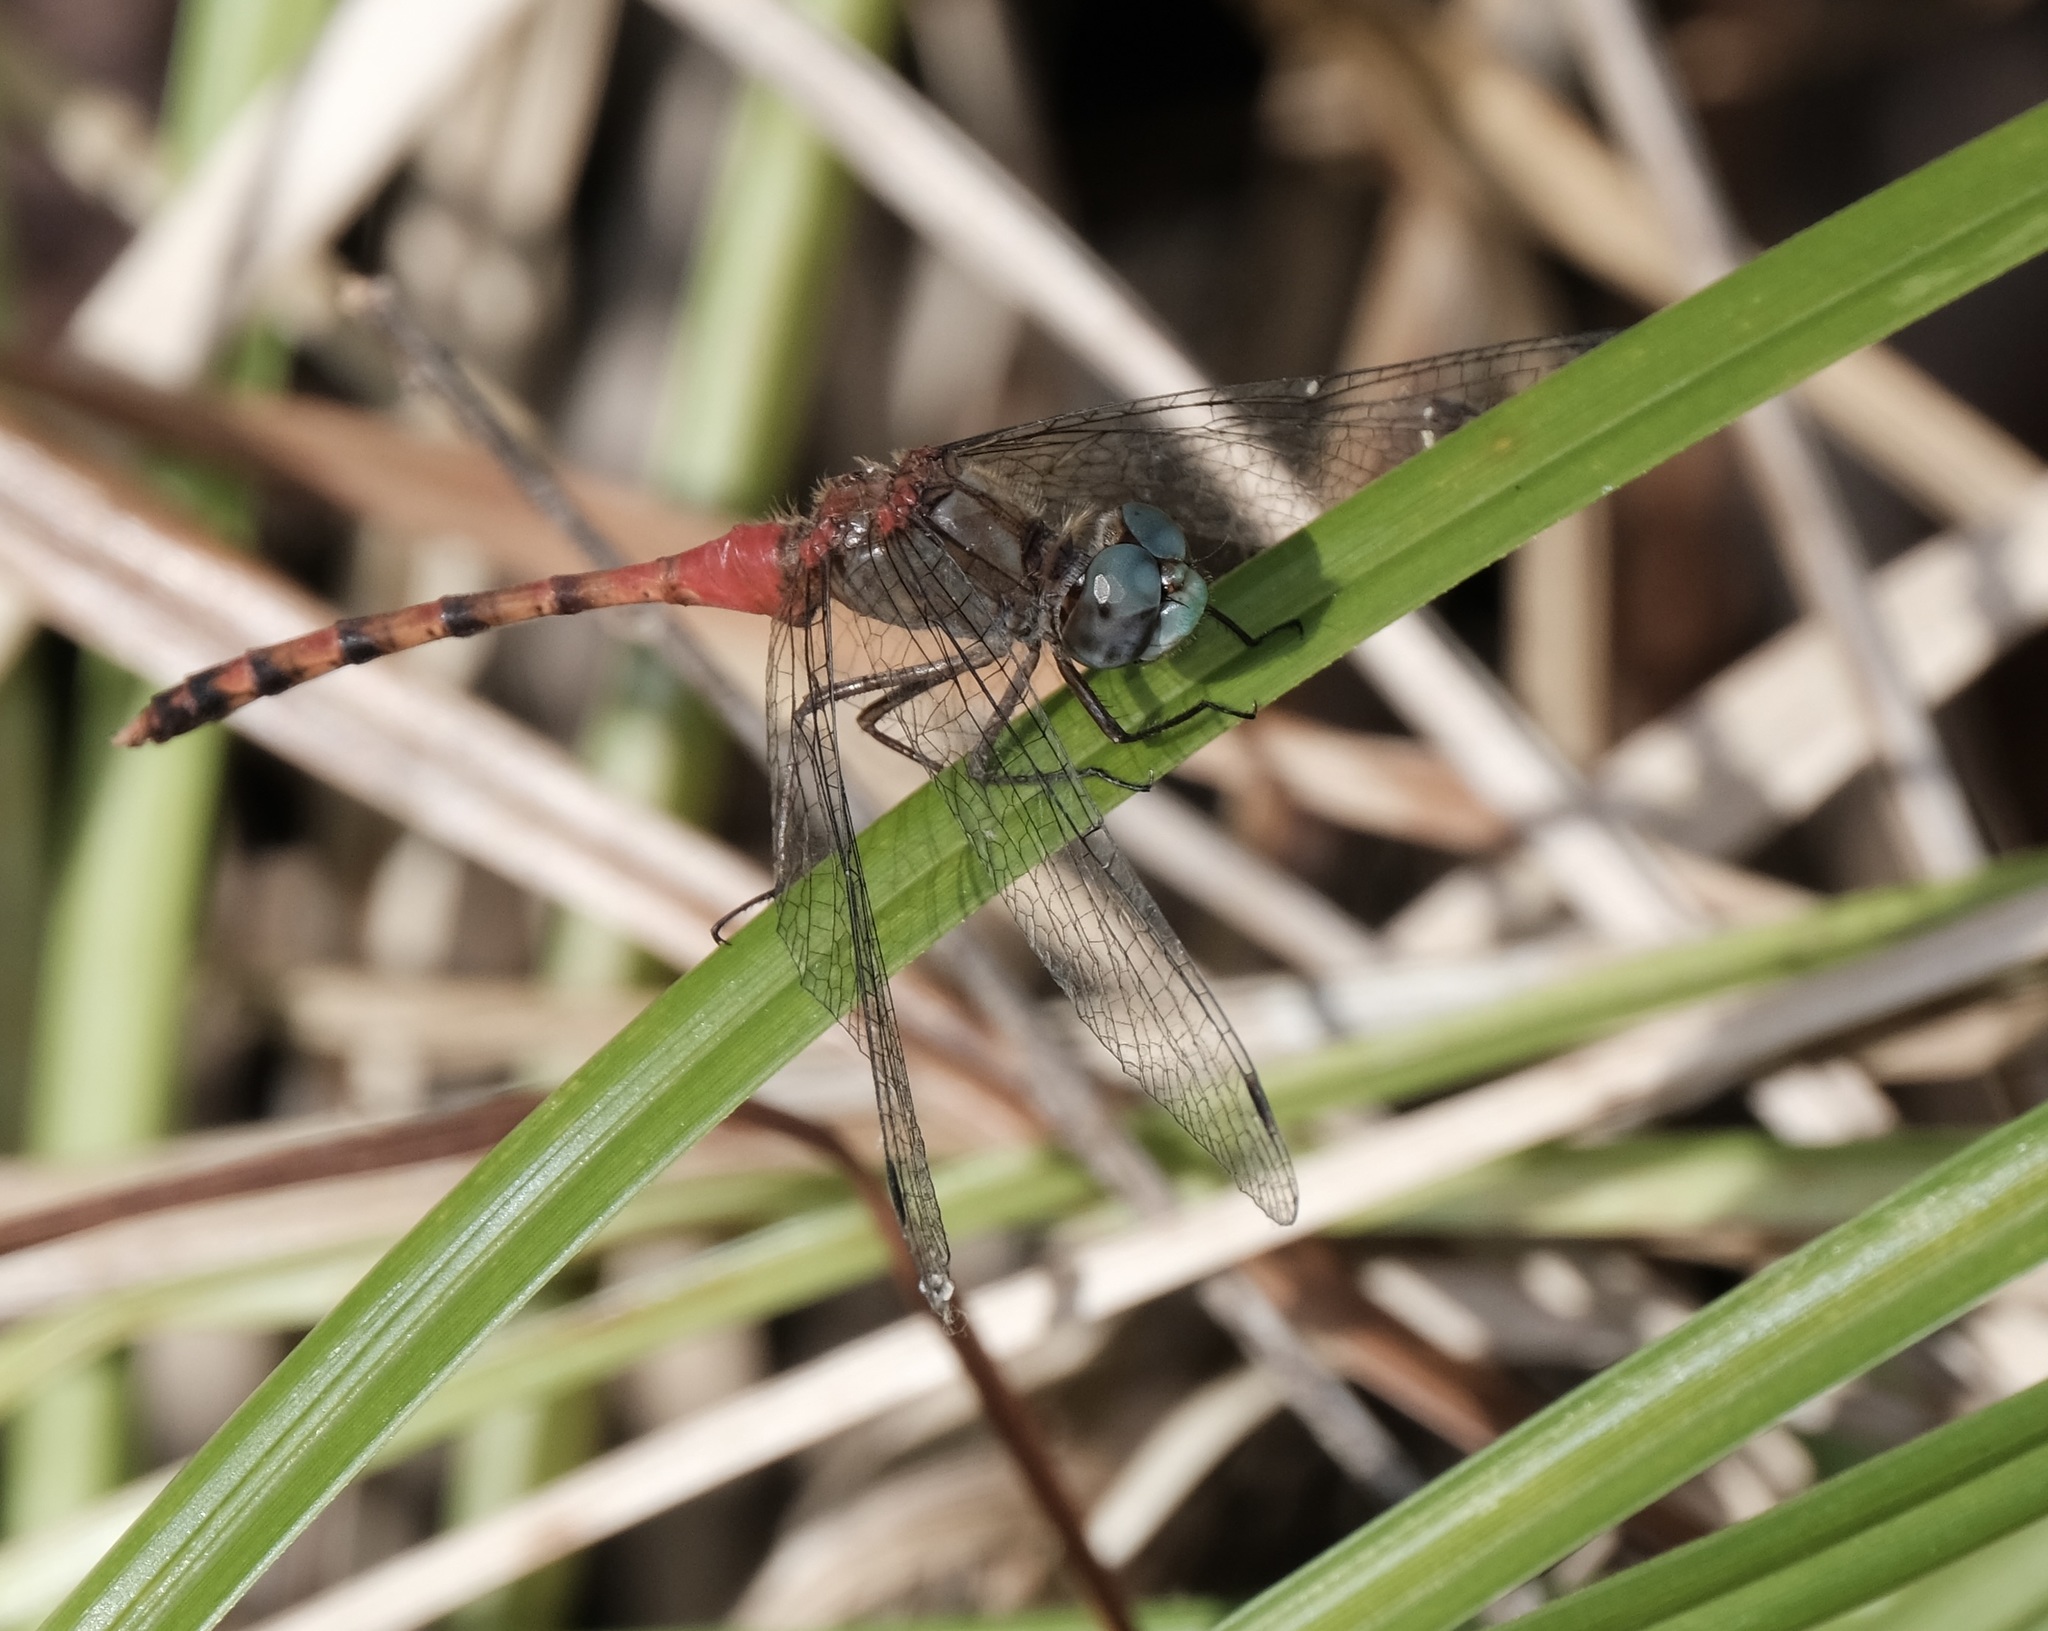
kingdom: Animalia
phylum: Arthropoda
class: Insecta
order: Odonata
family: Libellulidae
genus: Sympetrum
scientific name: Sympetrum ambiguum
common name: Blue-faced meadowhawk
